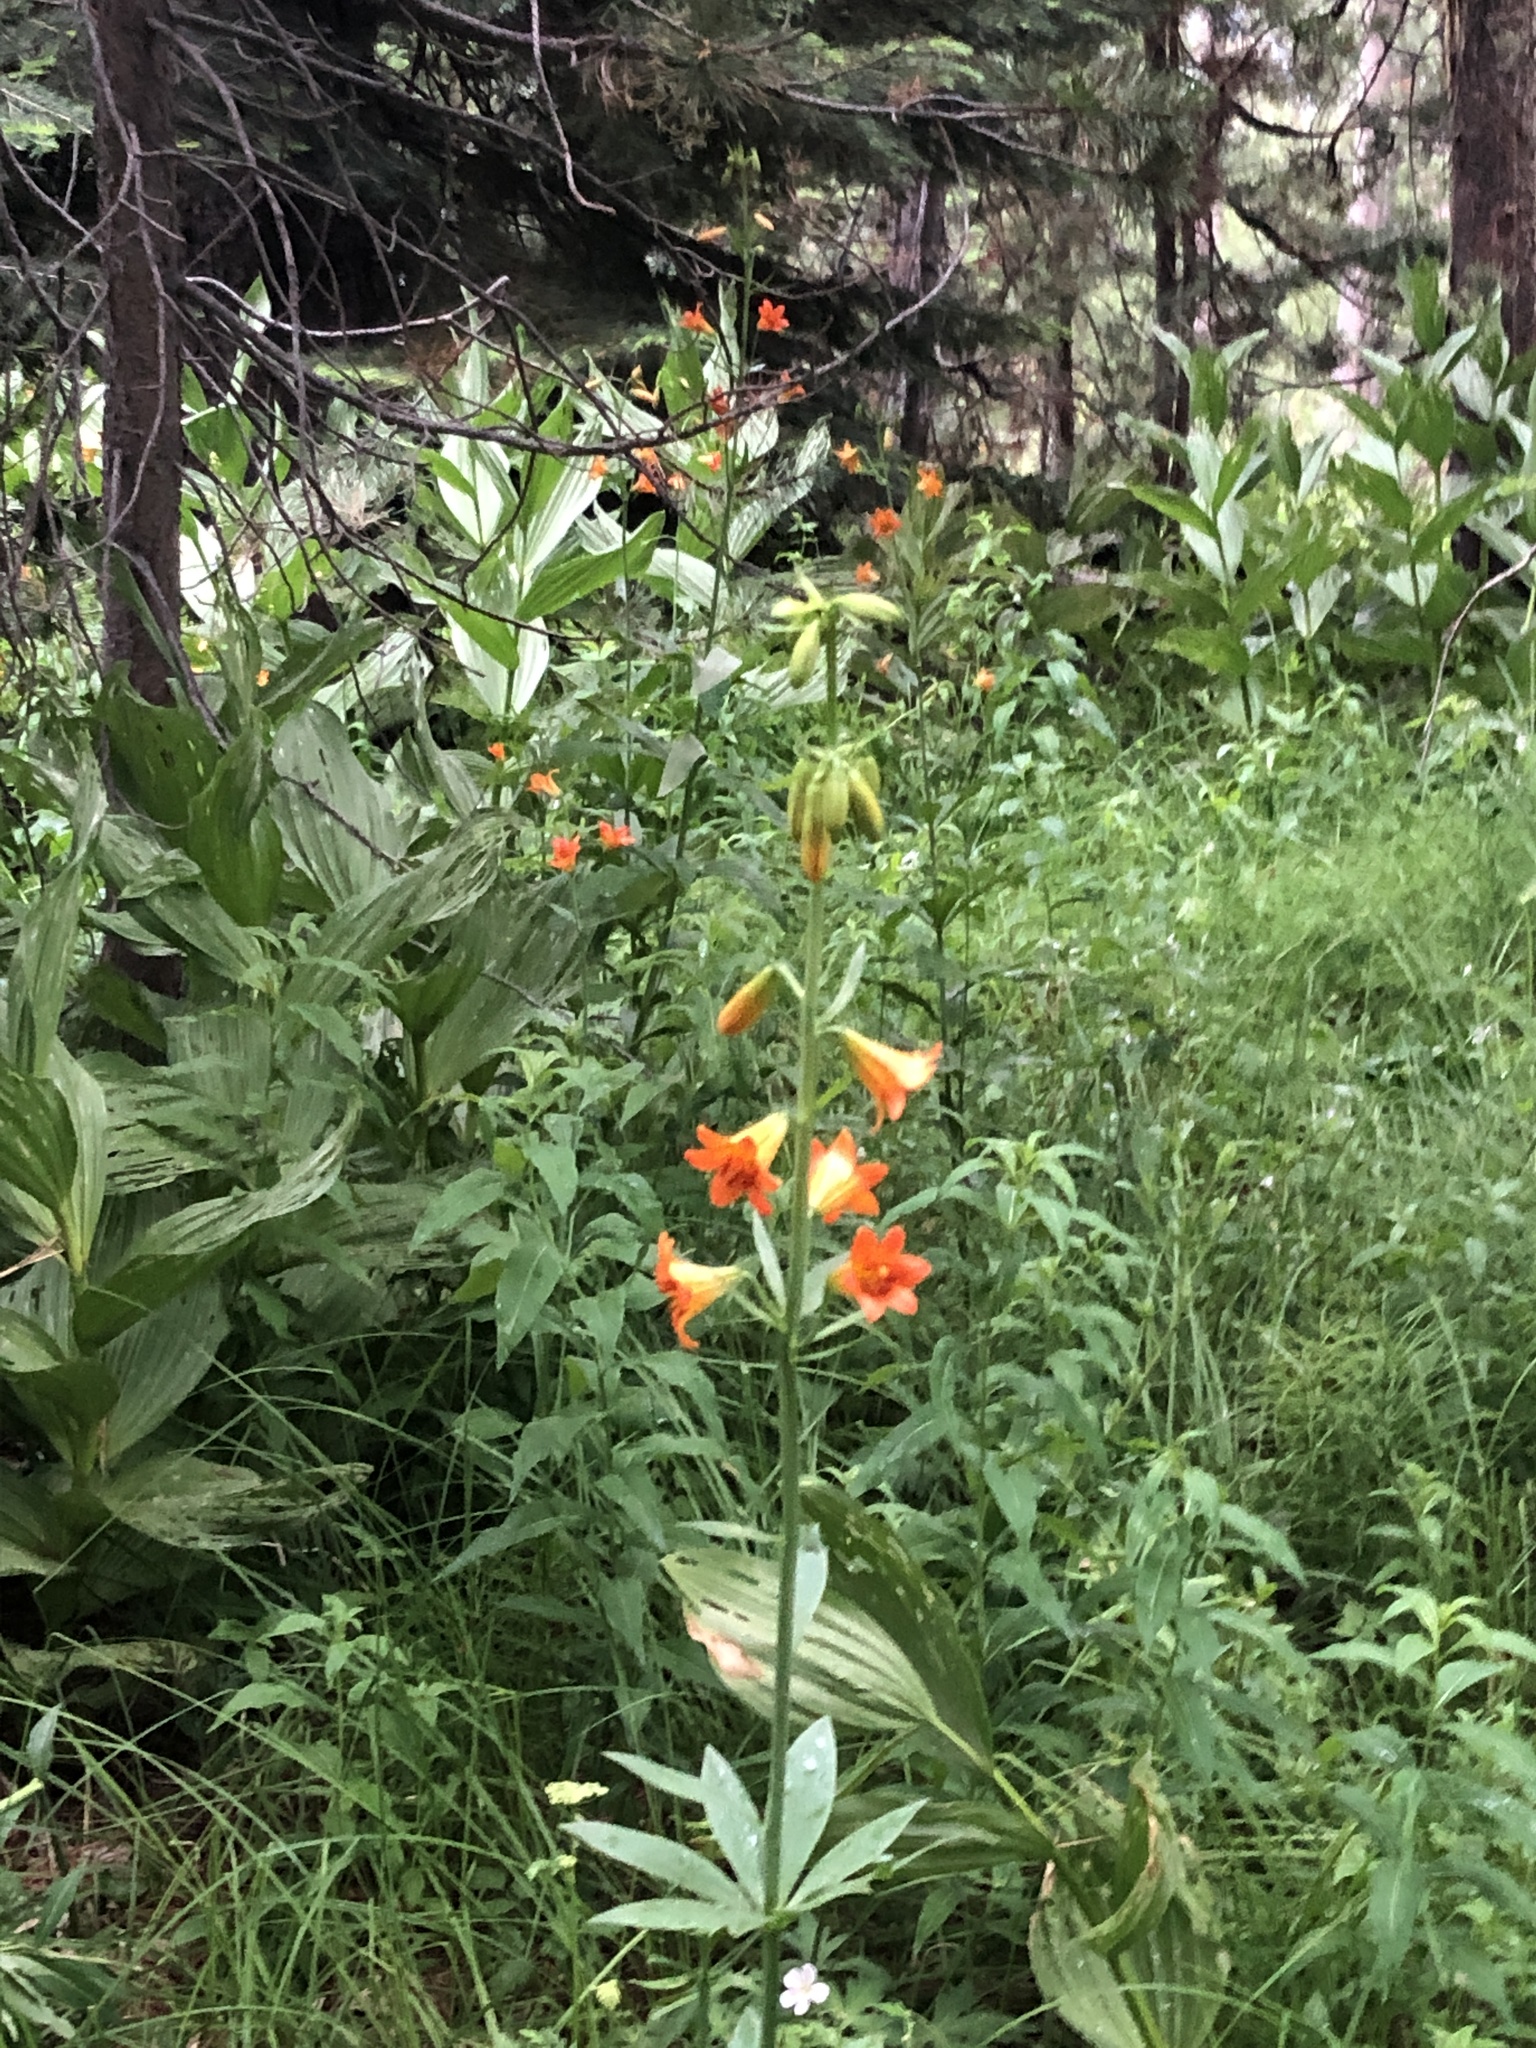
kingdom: Plantae
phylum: Tracheophyta
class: Liliopsida
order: Liliales
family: Liliaceae
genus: Lilium
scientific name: Lilium parvum
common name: Alpine lily
